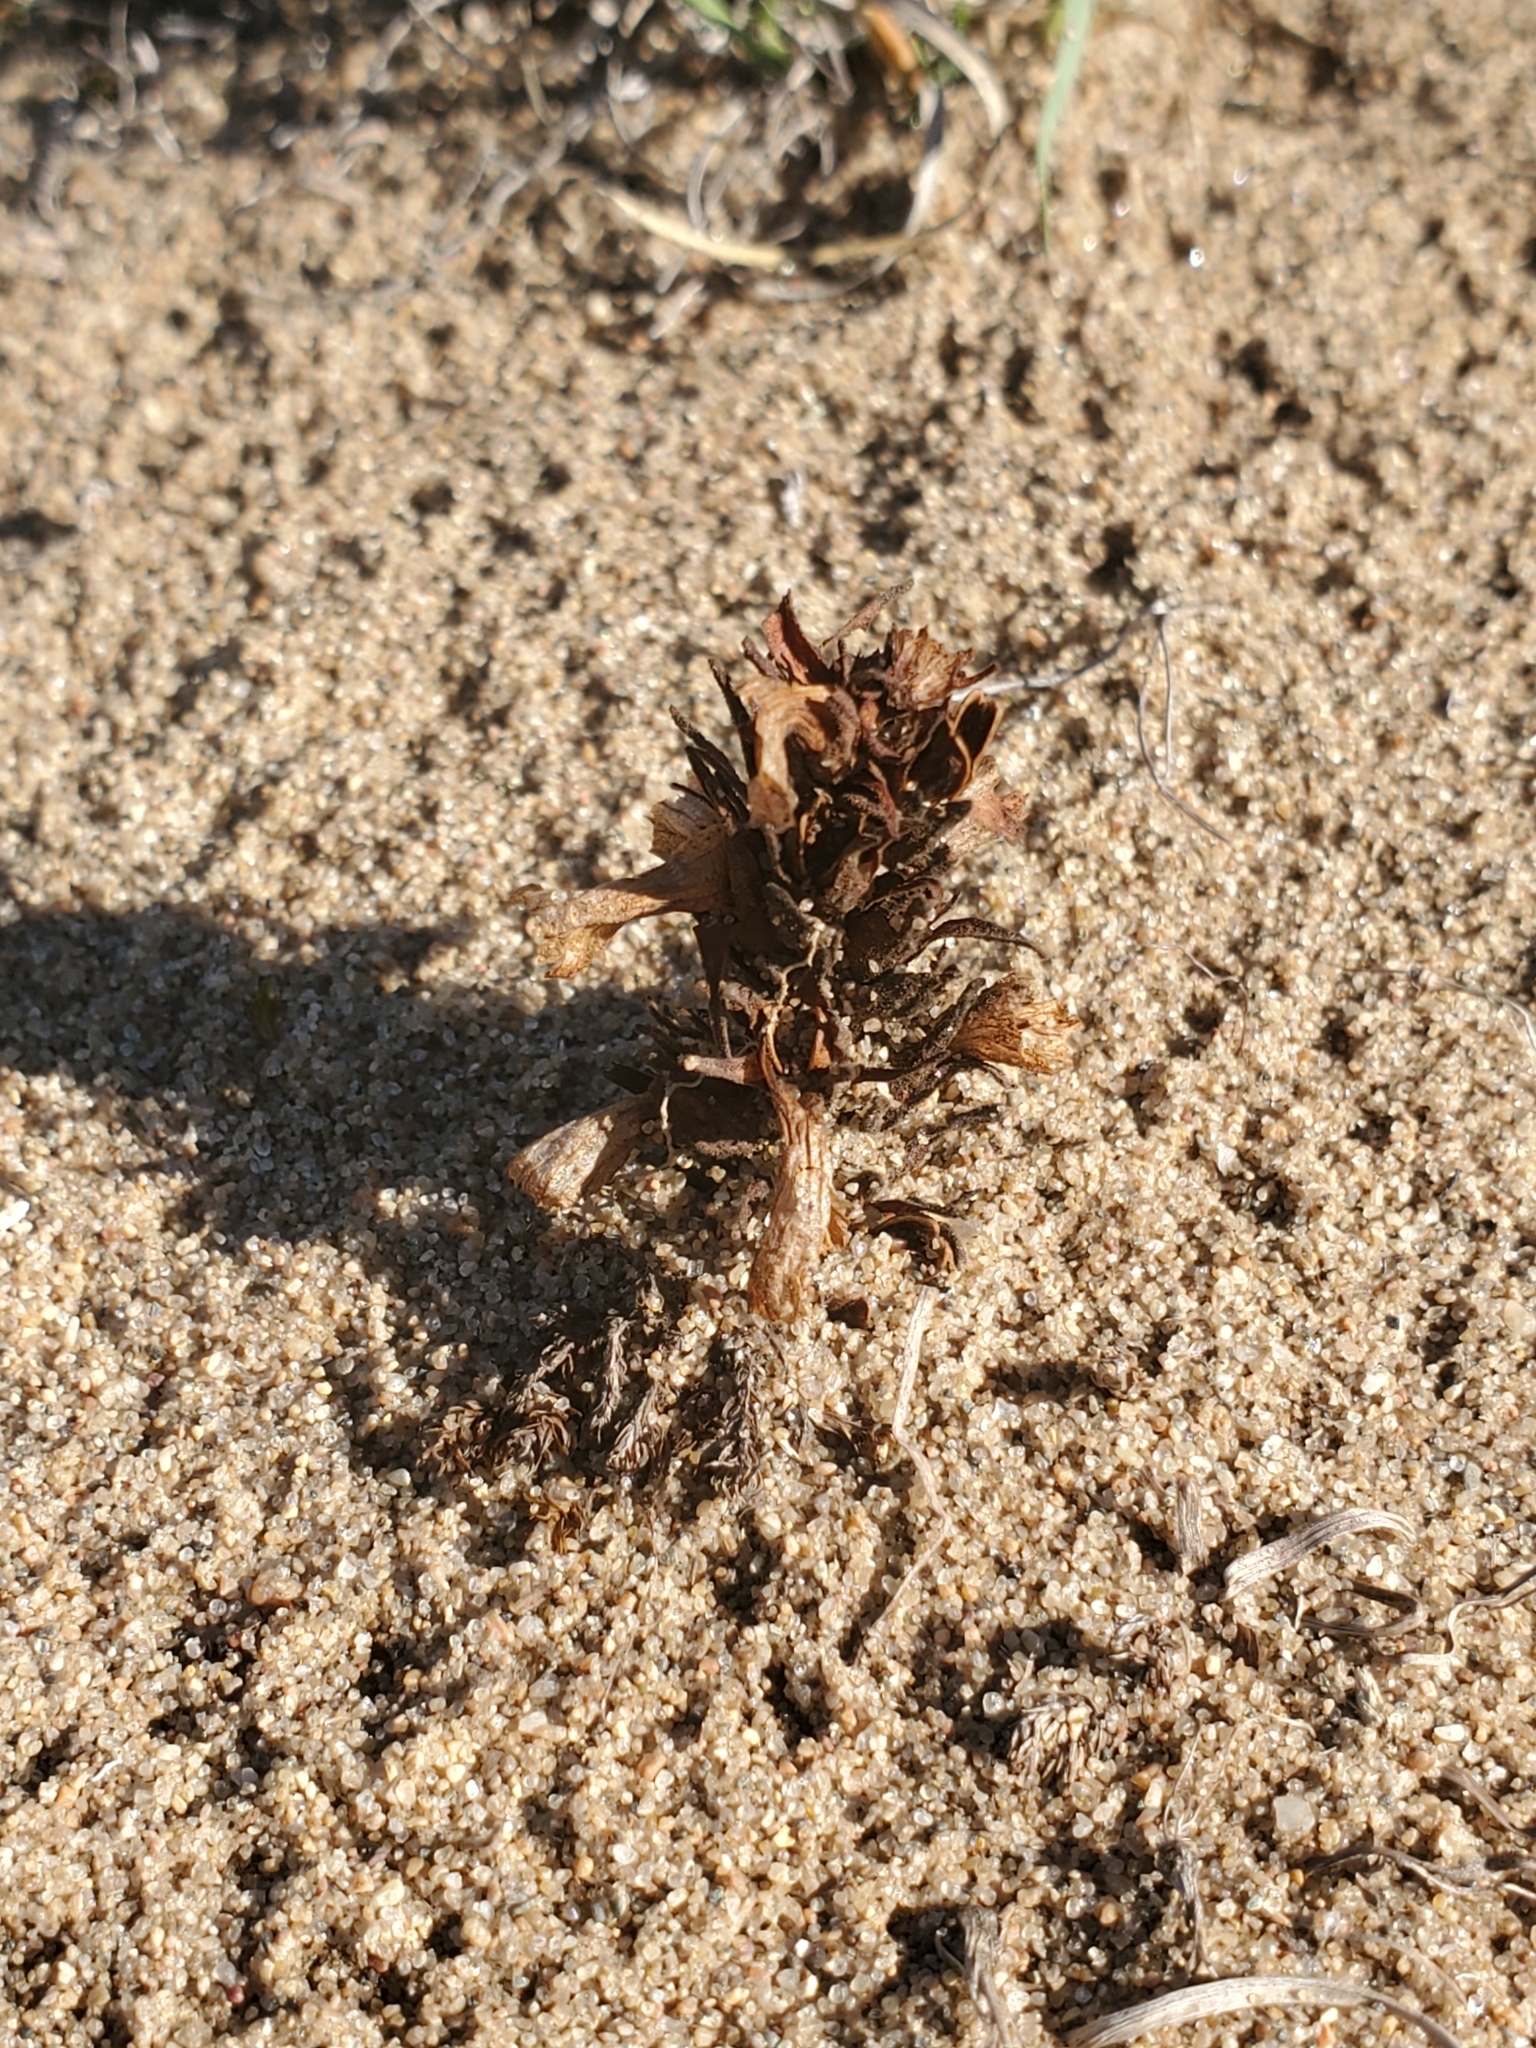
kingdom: Plantae
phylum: Tracheophyta
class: Magnoliopsida
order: Lamiales
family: Orobanchaceae
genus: Aphyllon
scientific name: Aphyllon ludovicianum
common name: Louisiana broomrape
